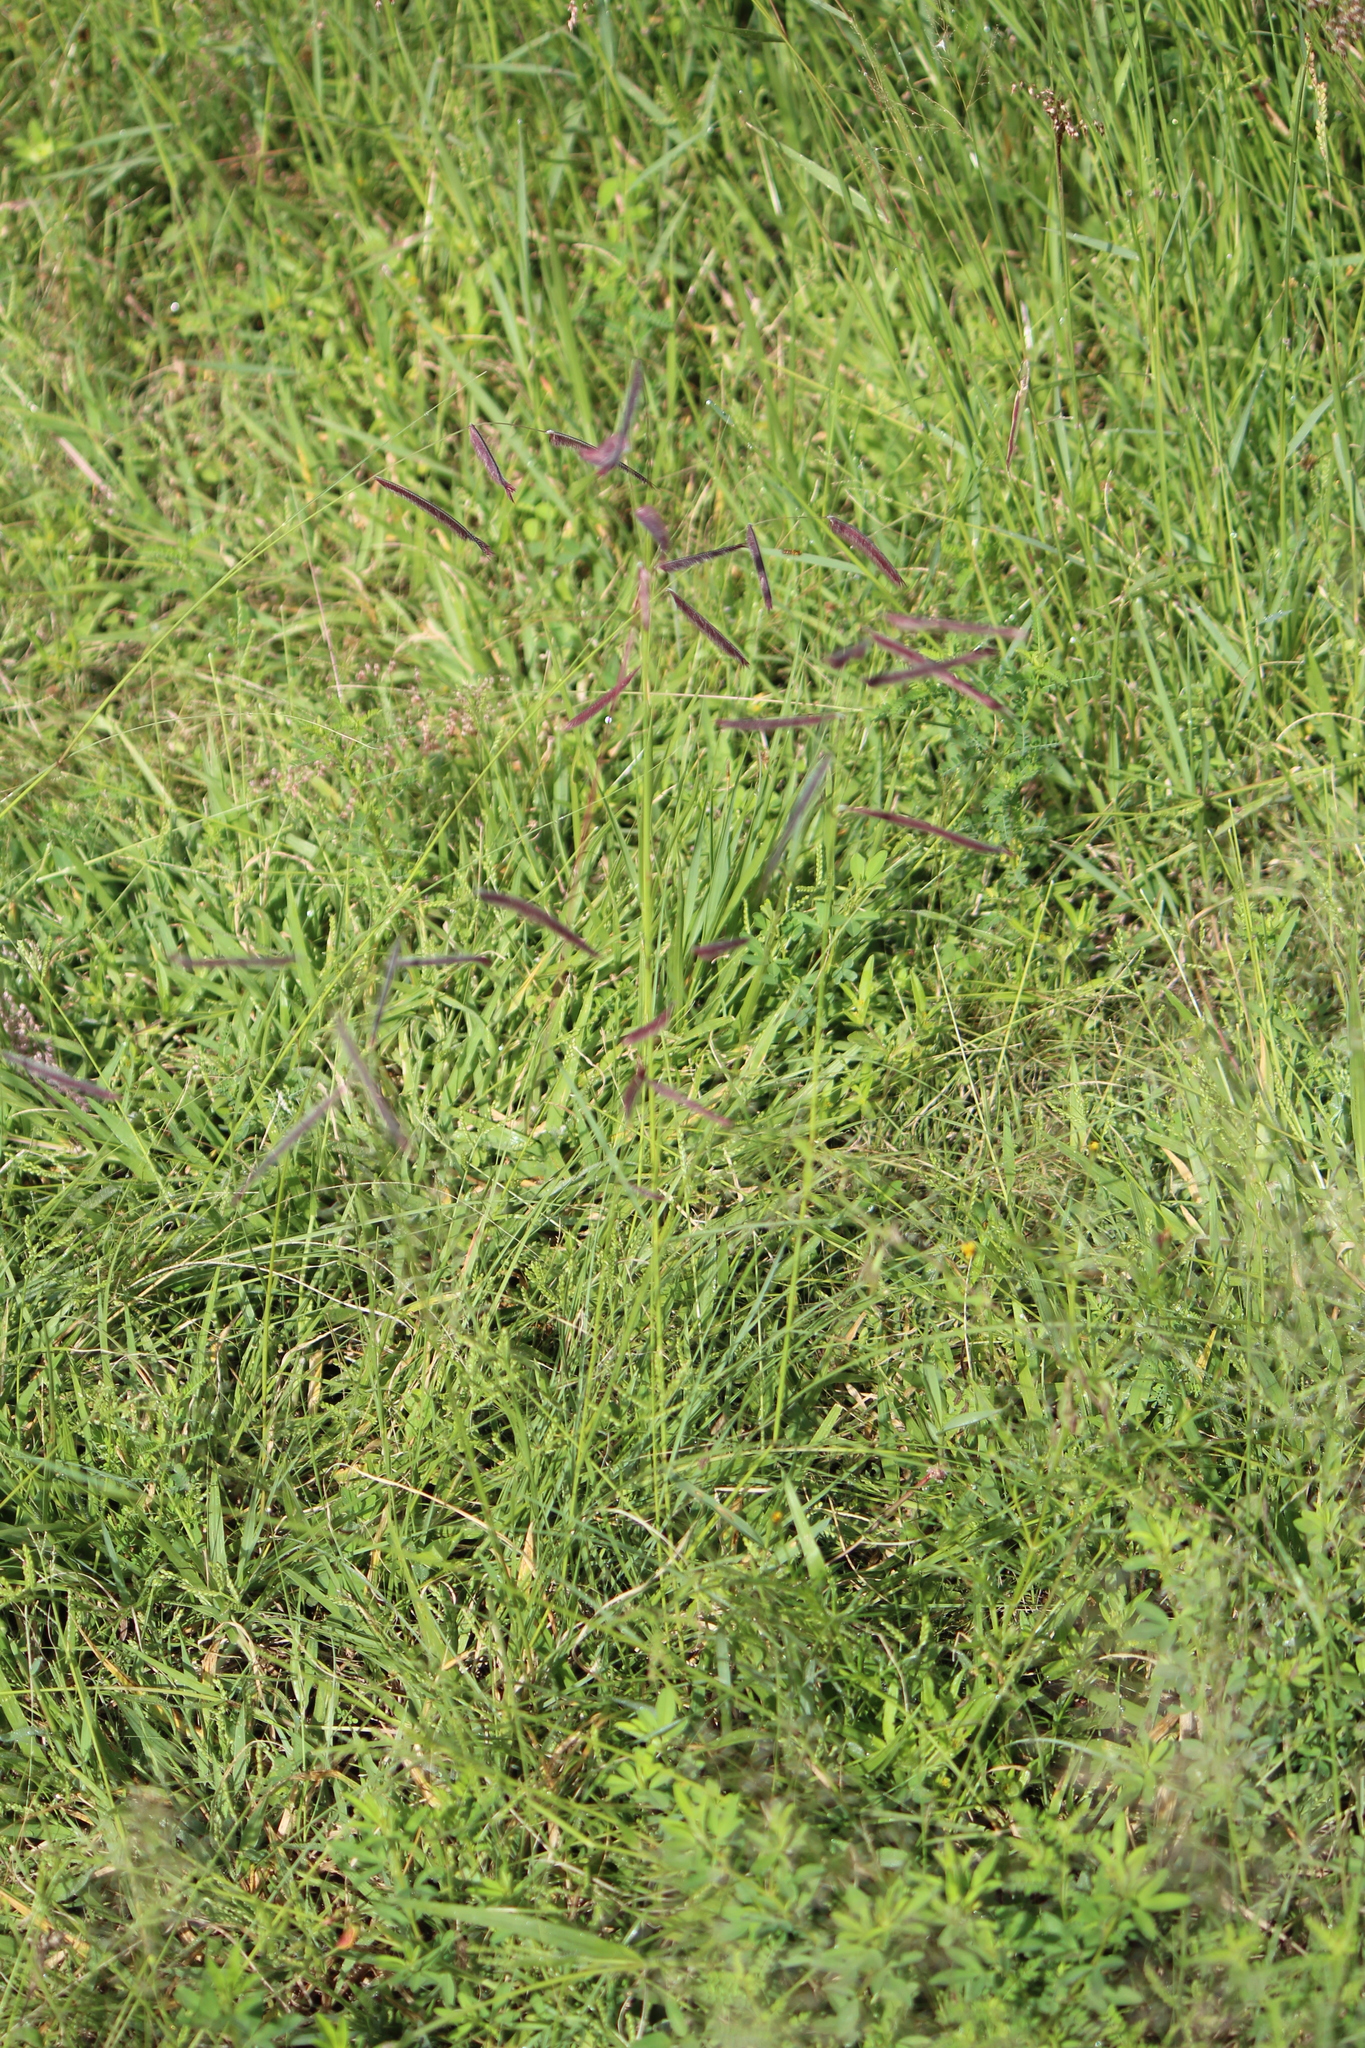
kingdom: Plantae
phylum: Tracheophyta
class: Liliopsida
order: Poales
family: Poaceae
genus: Bouteloua
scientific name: Bouteloua gracilis
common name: Blue grama
